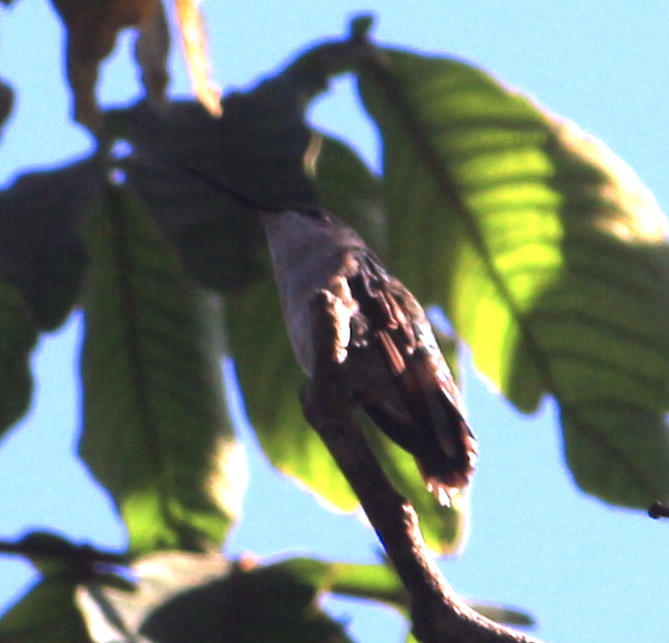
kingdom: Animalia
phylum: Chordata
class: Aves
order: Apodiformes
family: Trochilidae
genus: Archilochus
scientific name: Archilochus colubris
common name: Ruby-throated hummingbird
